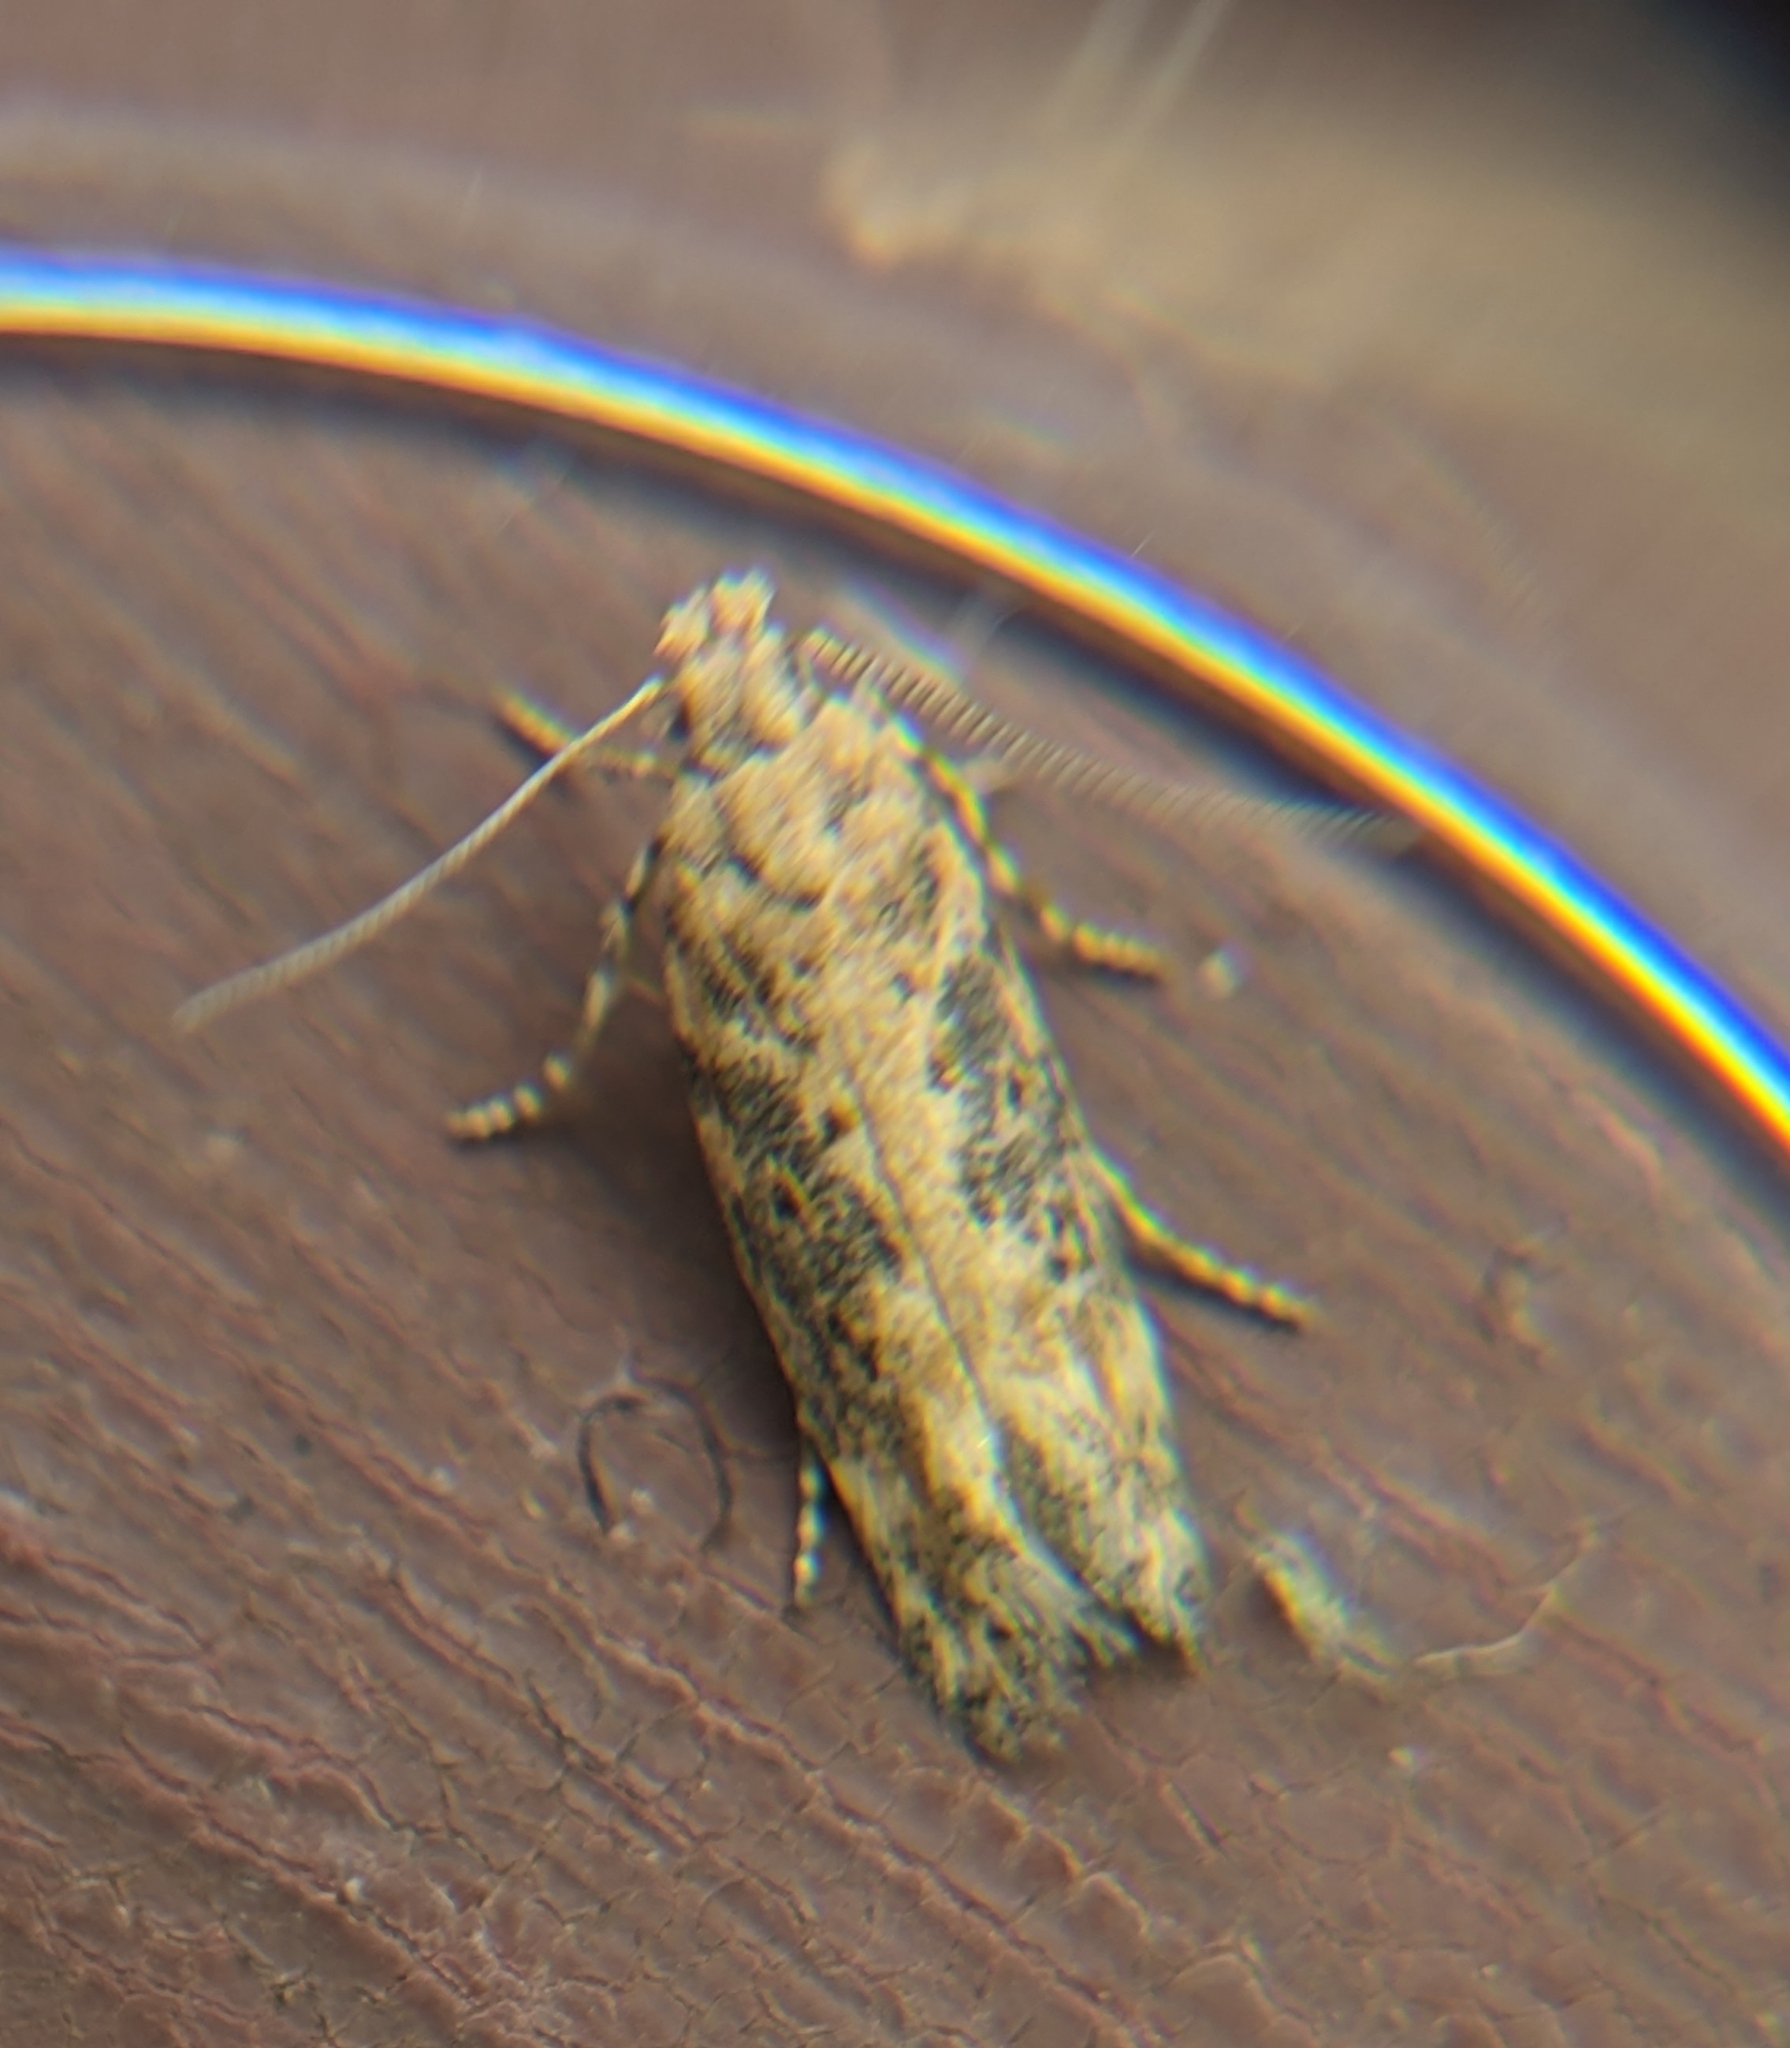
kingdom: Animalia
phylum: Arthropoda
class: Insecta
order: Lepidoptera
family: Gelechiidae
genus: Scrobipalpa
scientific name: Scrobipalpa ocellatella
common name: Beet moth
